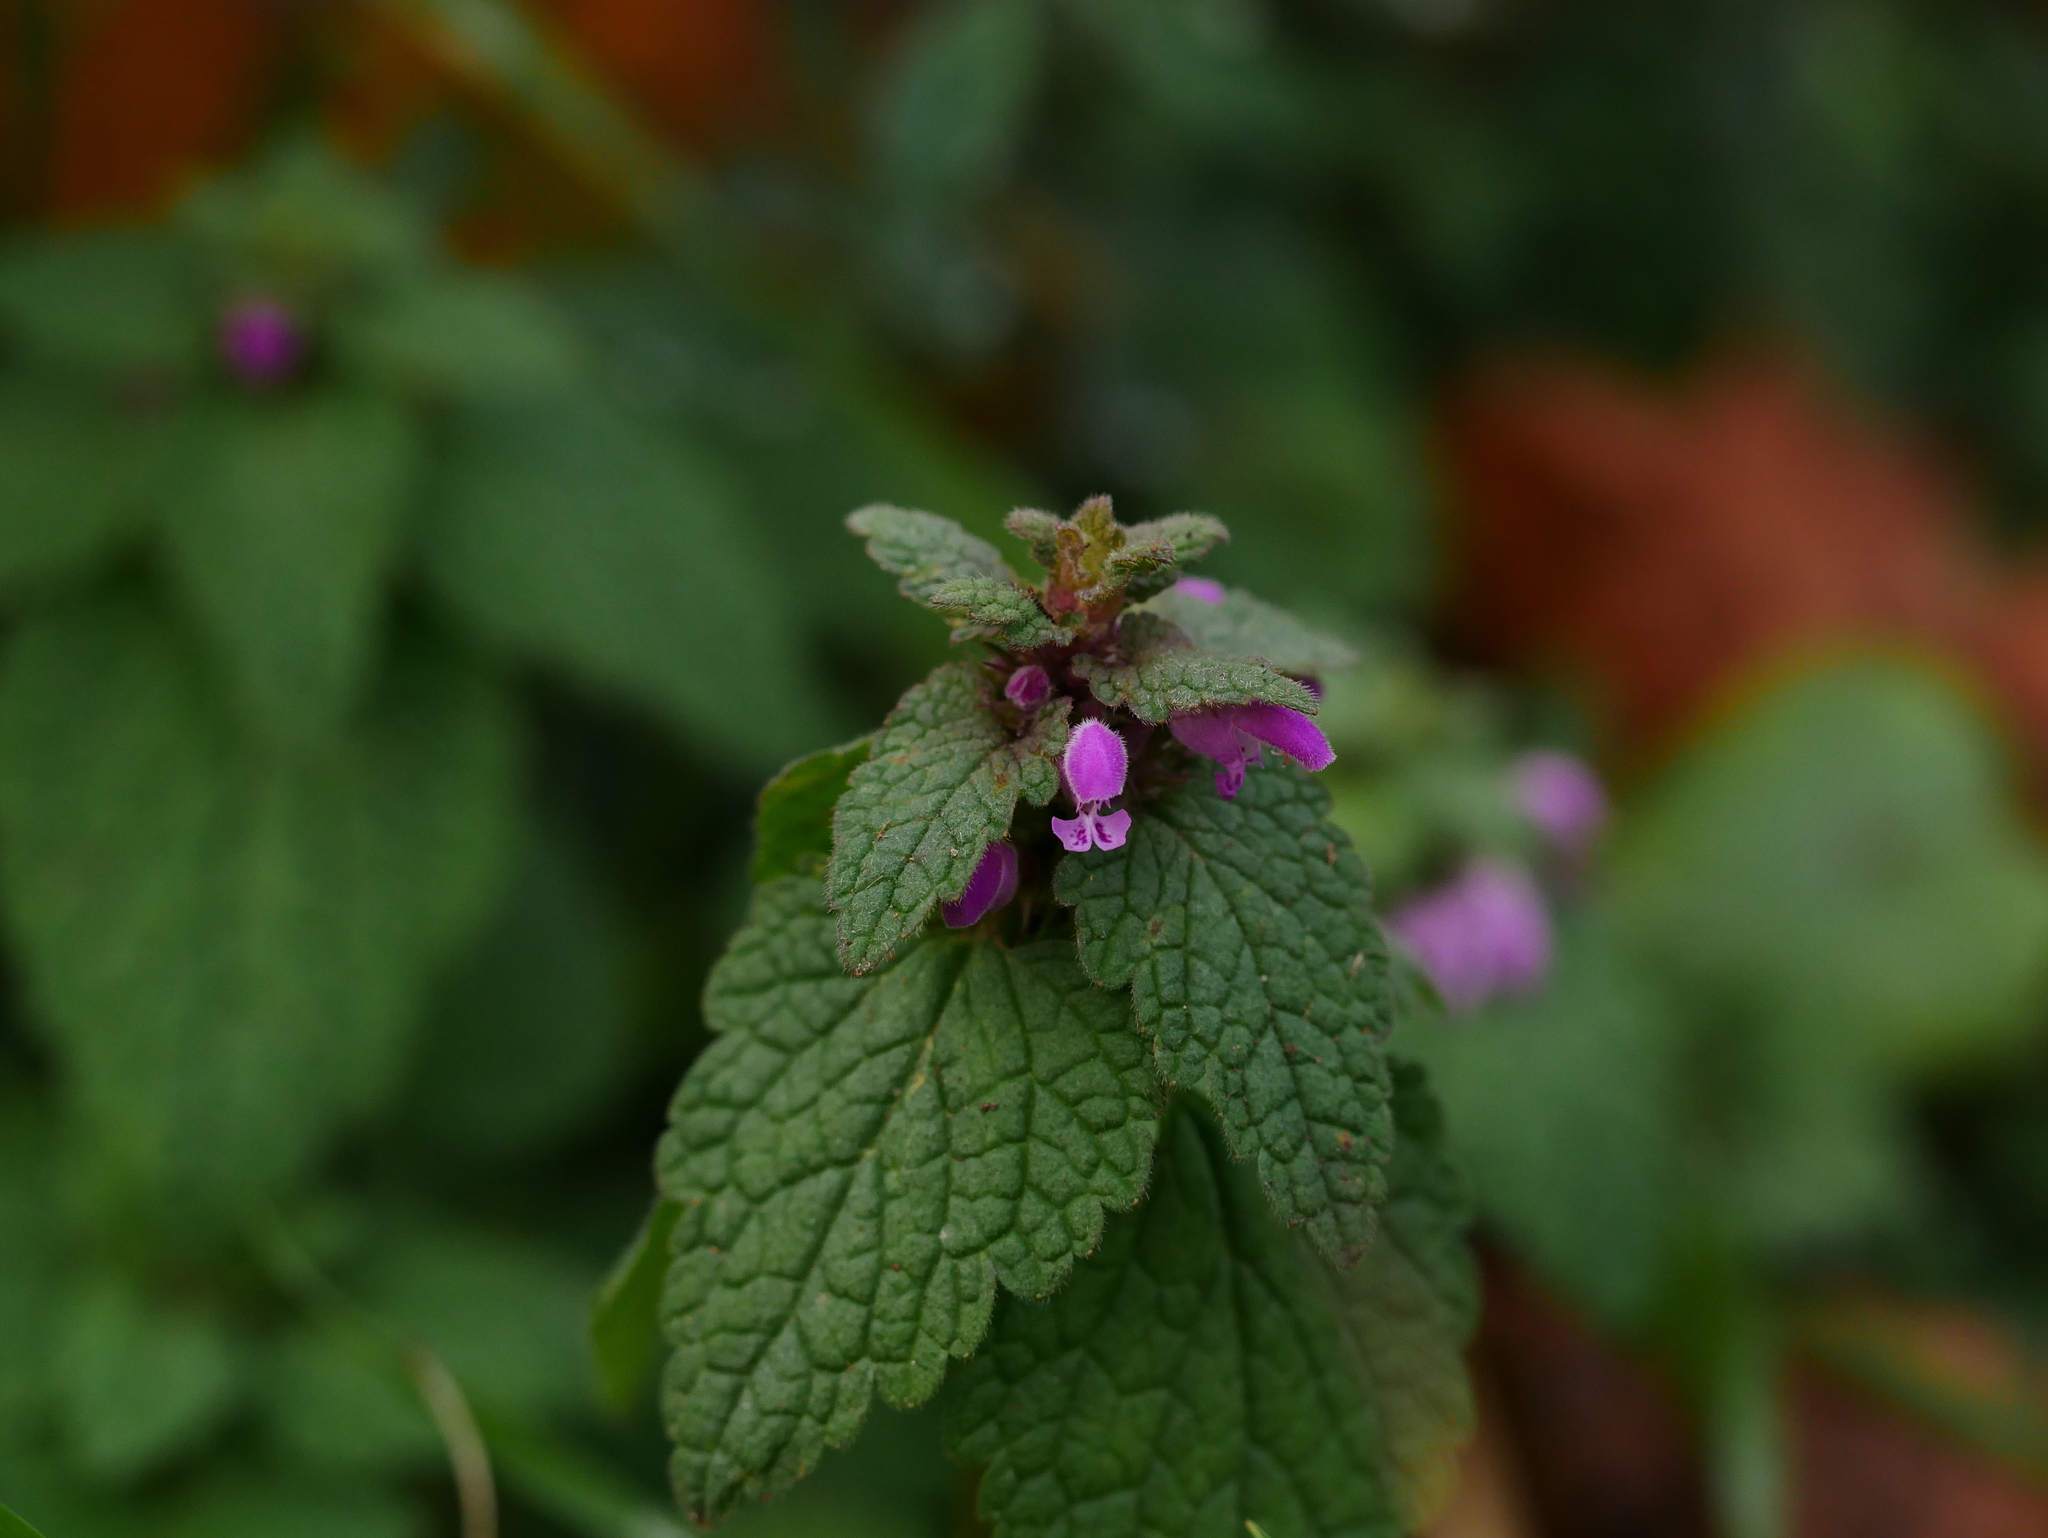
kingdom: Plantae
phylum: Tracheophyta
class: Magnoliopsida
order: Lamiales
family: Lamiaceae
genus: Lamium
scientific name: Lamium purpureum
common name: Red dead-nettle
